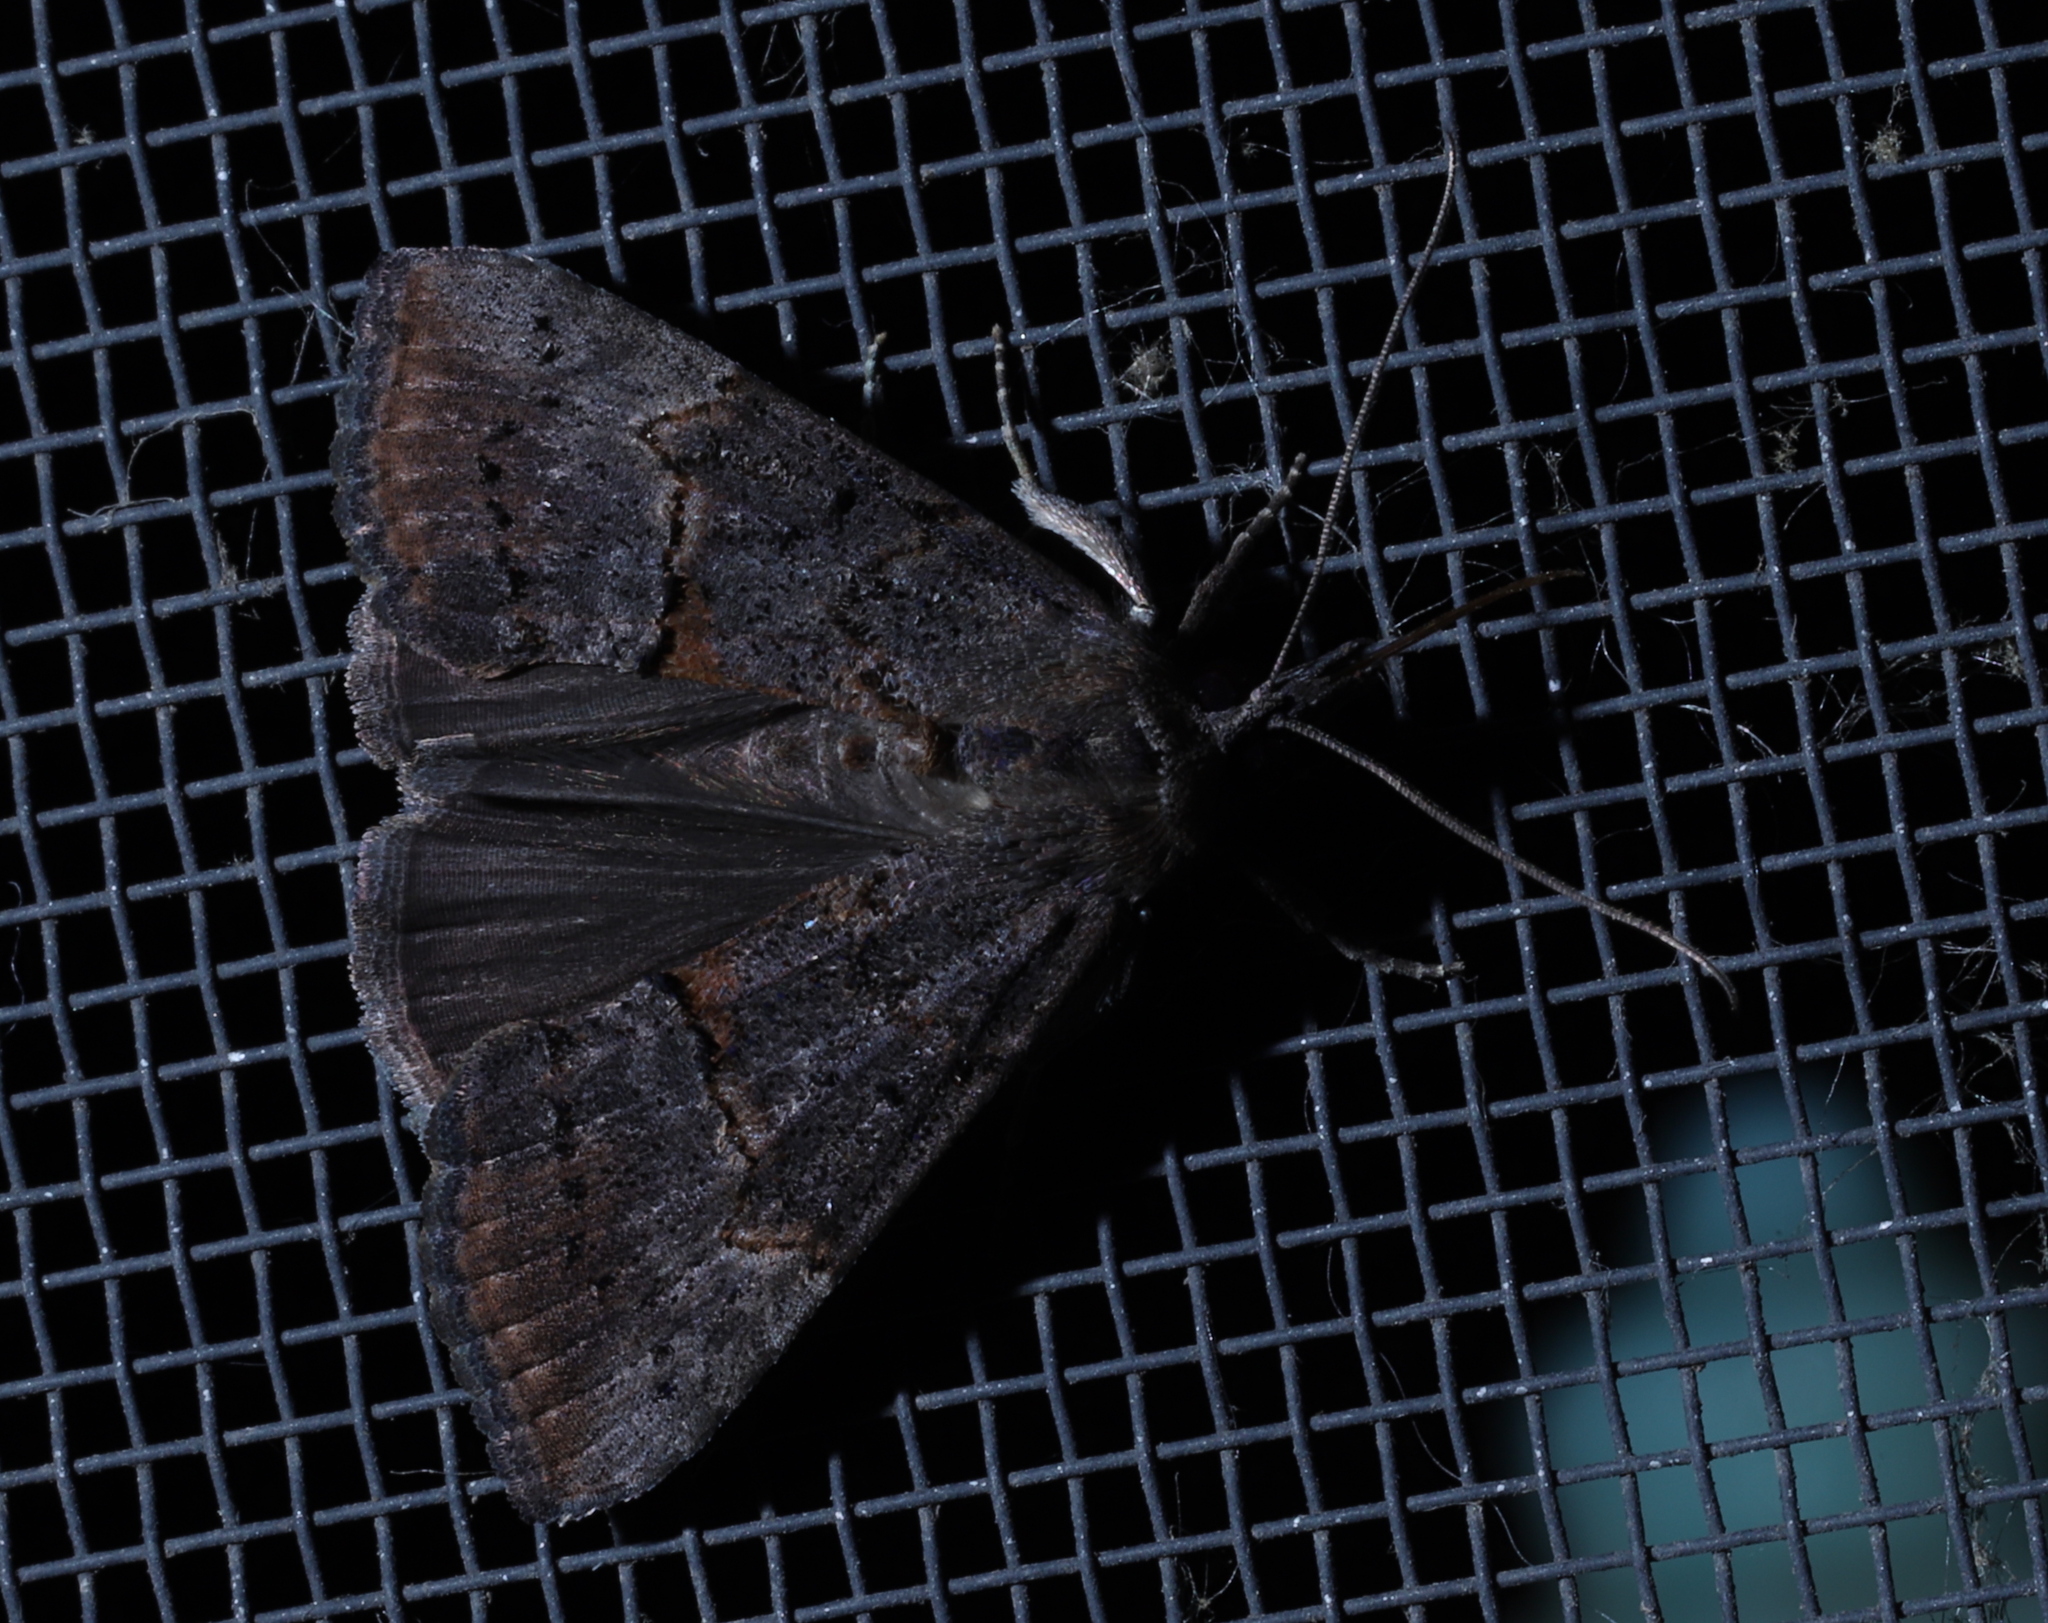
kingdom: Animalia
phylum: Arthropoda
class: Insecta
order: Lepidoptera
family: Erebidae
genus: Hypena
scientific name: Hypena scabra
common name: Green cloverworm
